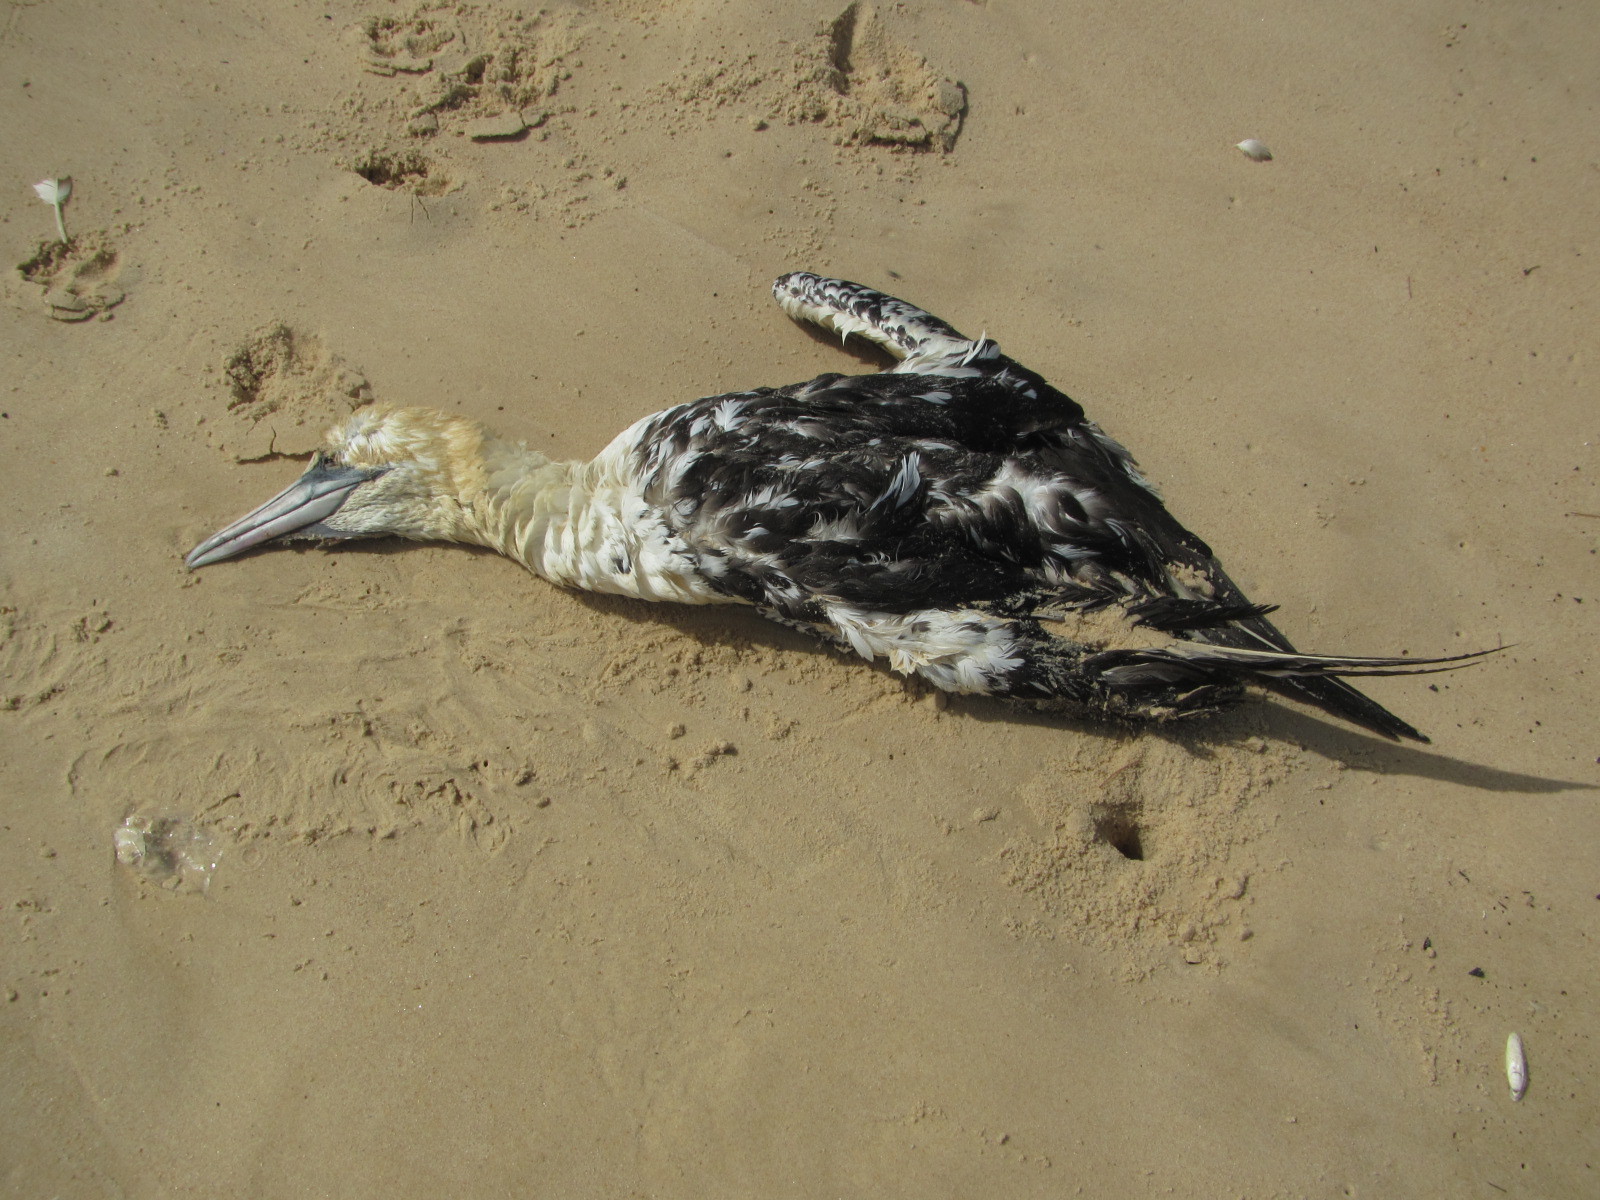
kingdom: Animalia
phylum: Chordata
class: Aves
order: Suliformes
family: Sulidae
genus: Morus
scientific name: Morus bassanus
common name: Northern gannet
